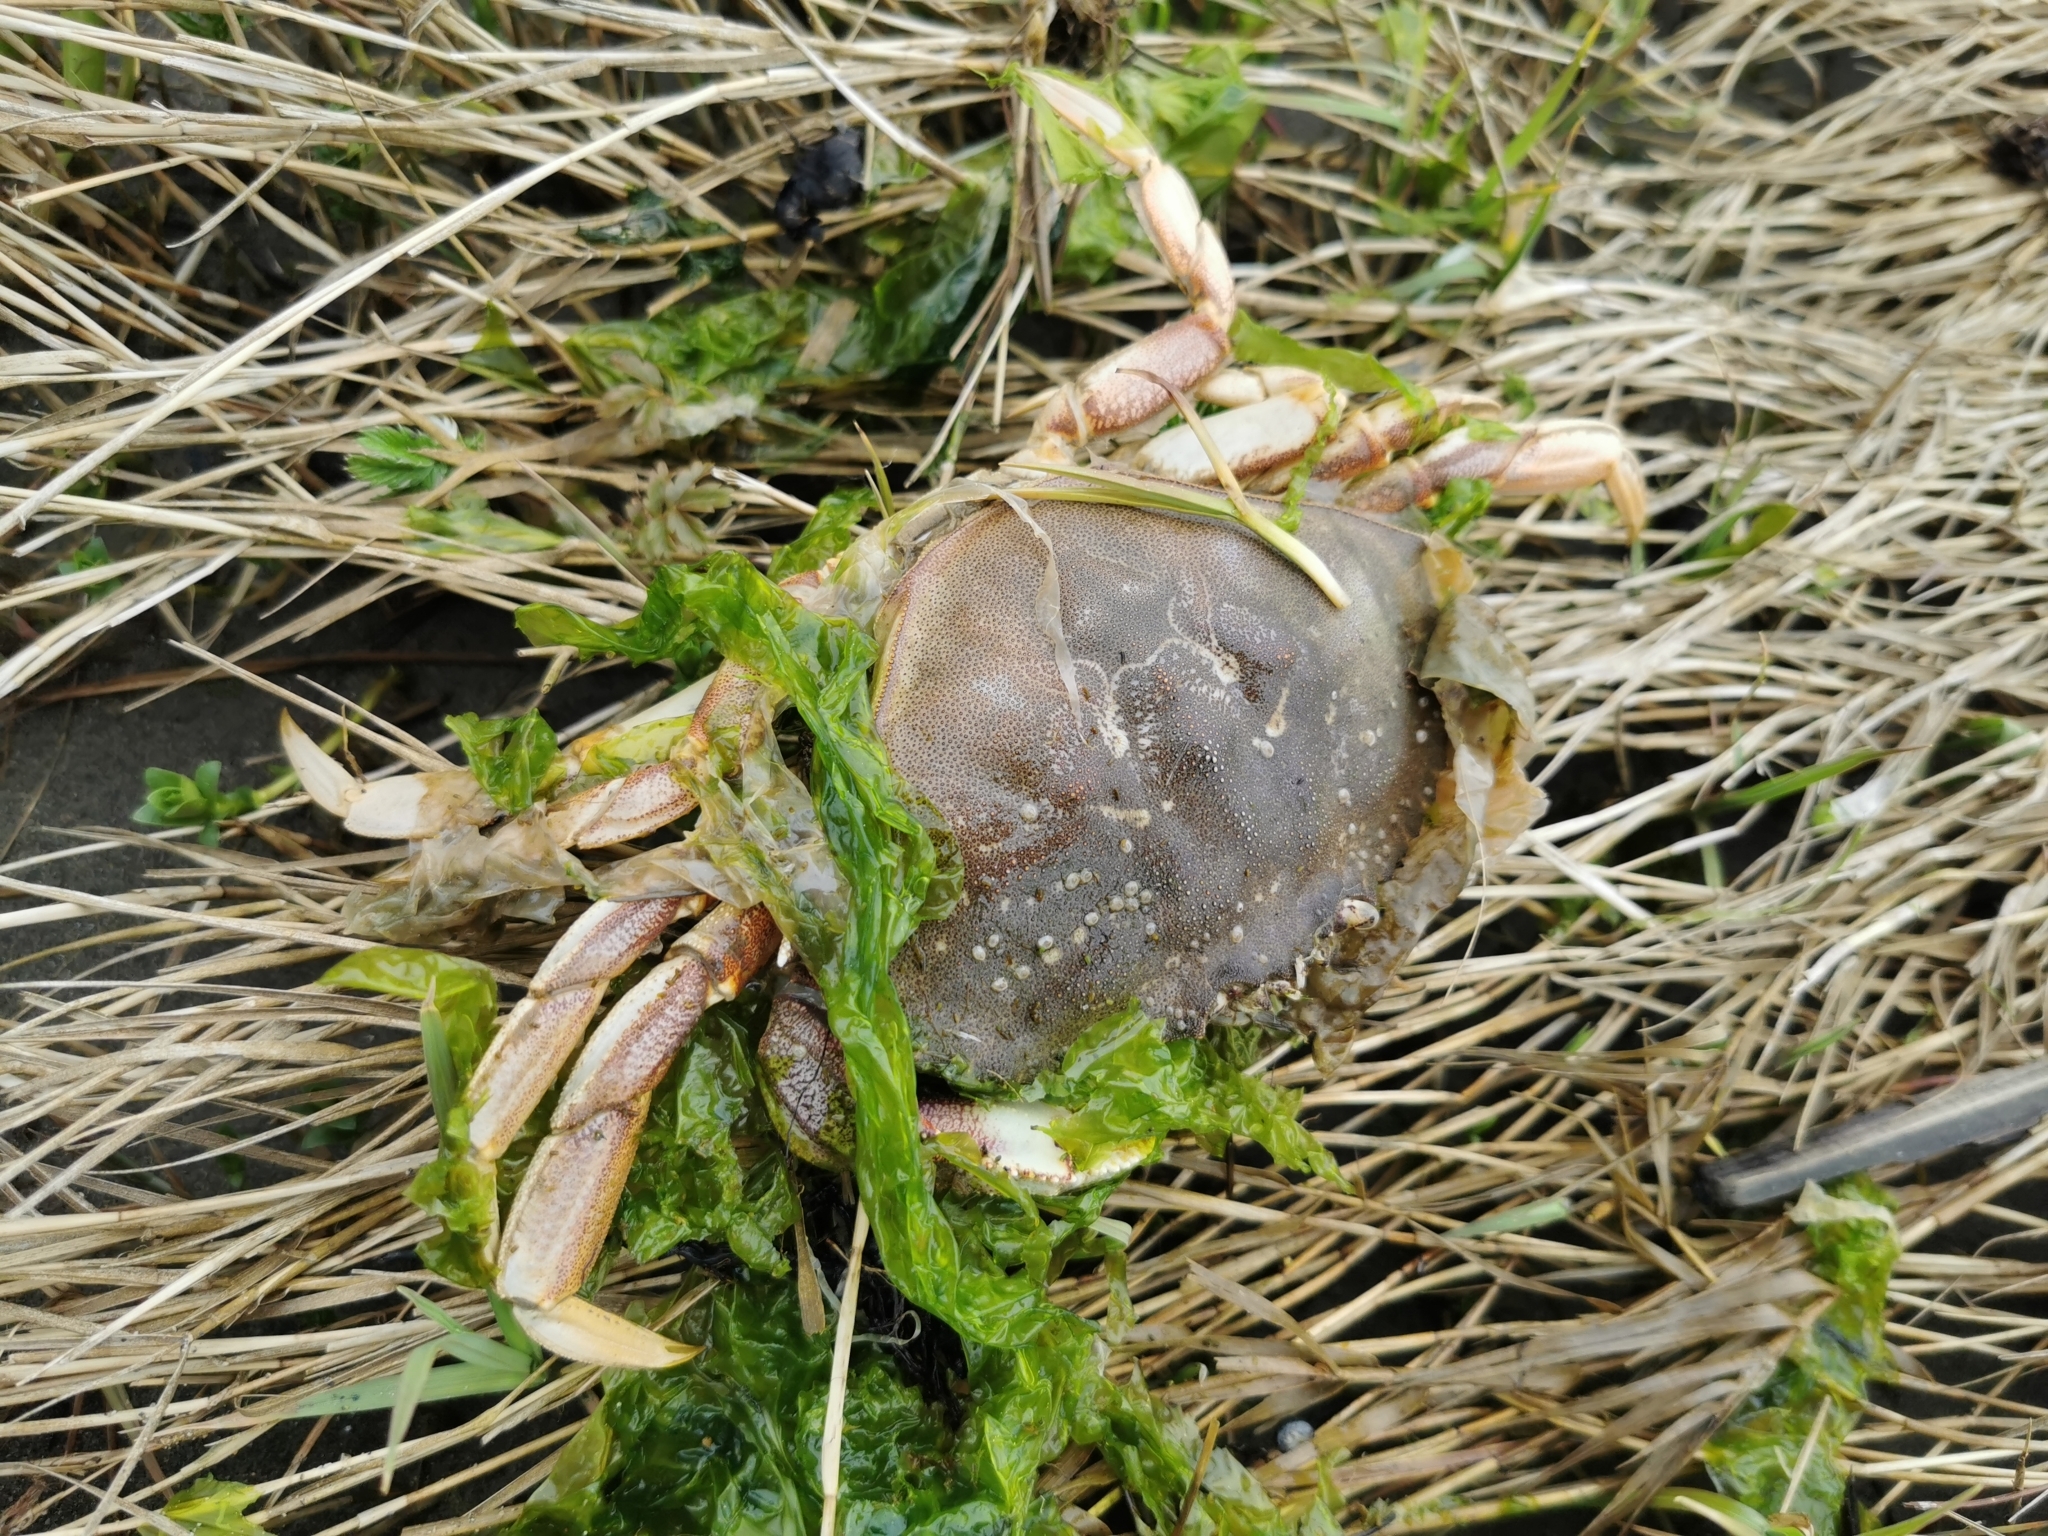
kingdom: Animalia
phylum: Arthropoda
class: Malacostraca
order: Decapoda
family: Cancridae
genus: Metacarcinus
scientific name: Metacarcinus magister
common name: Californian crab
